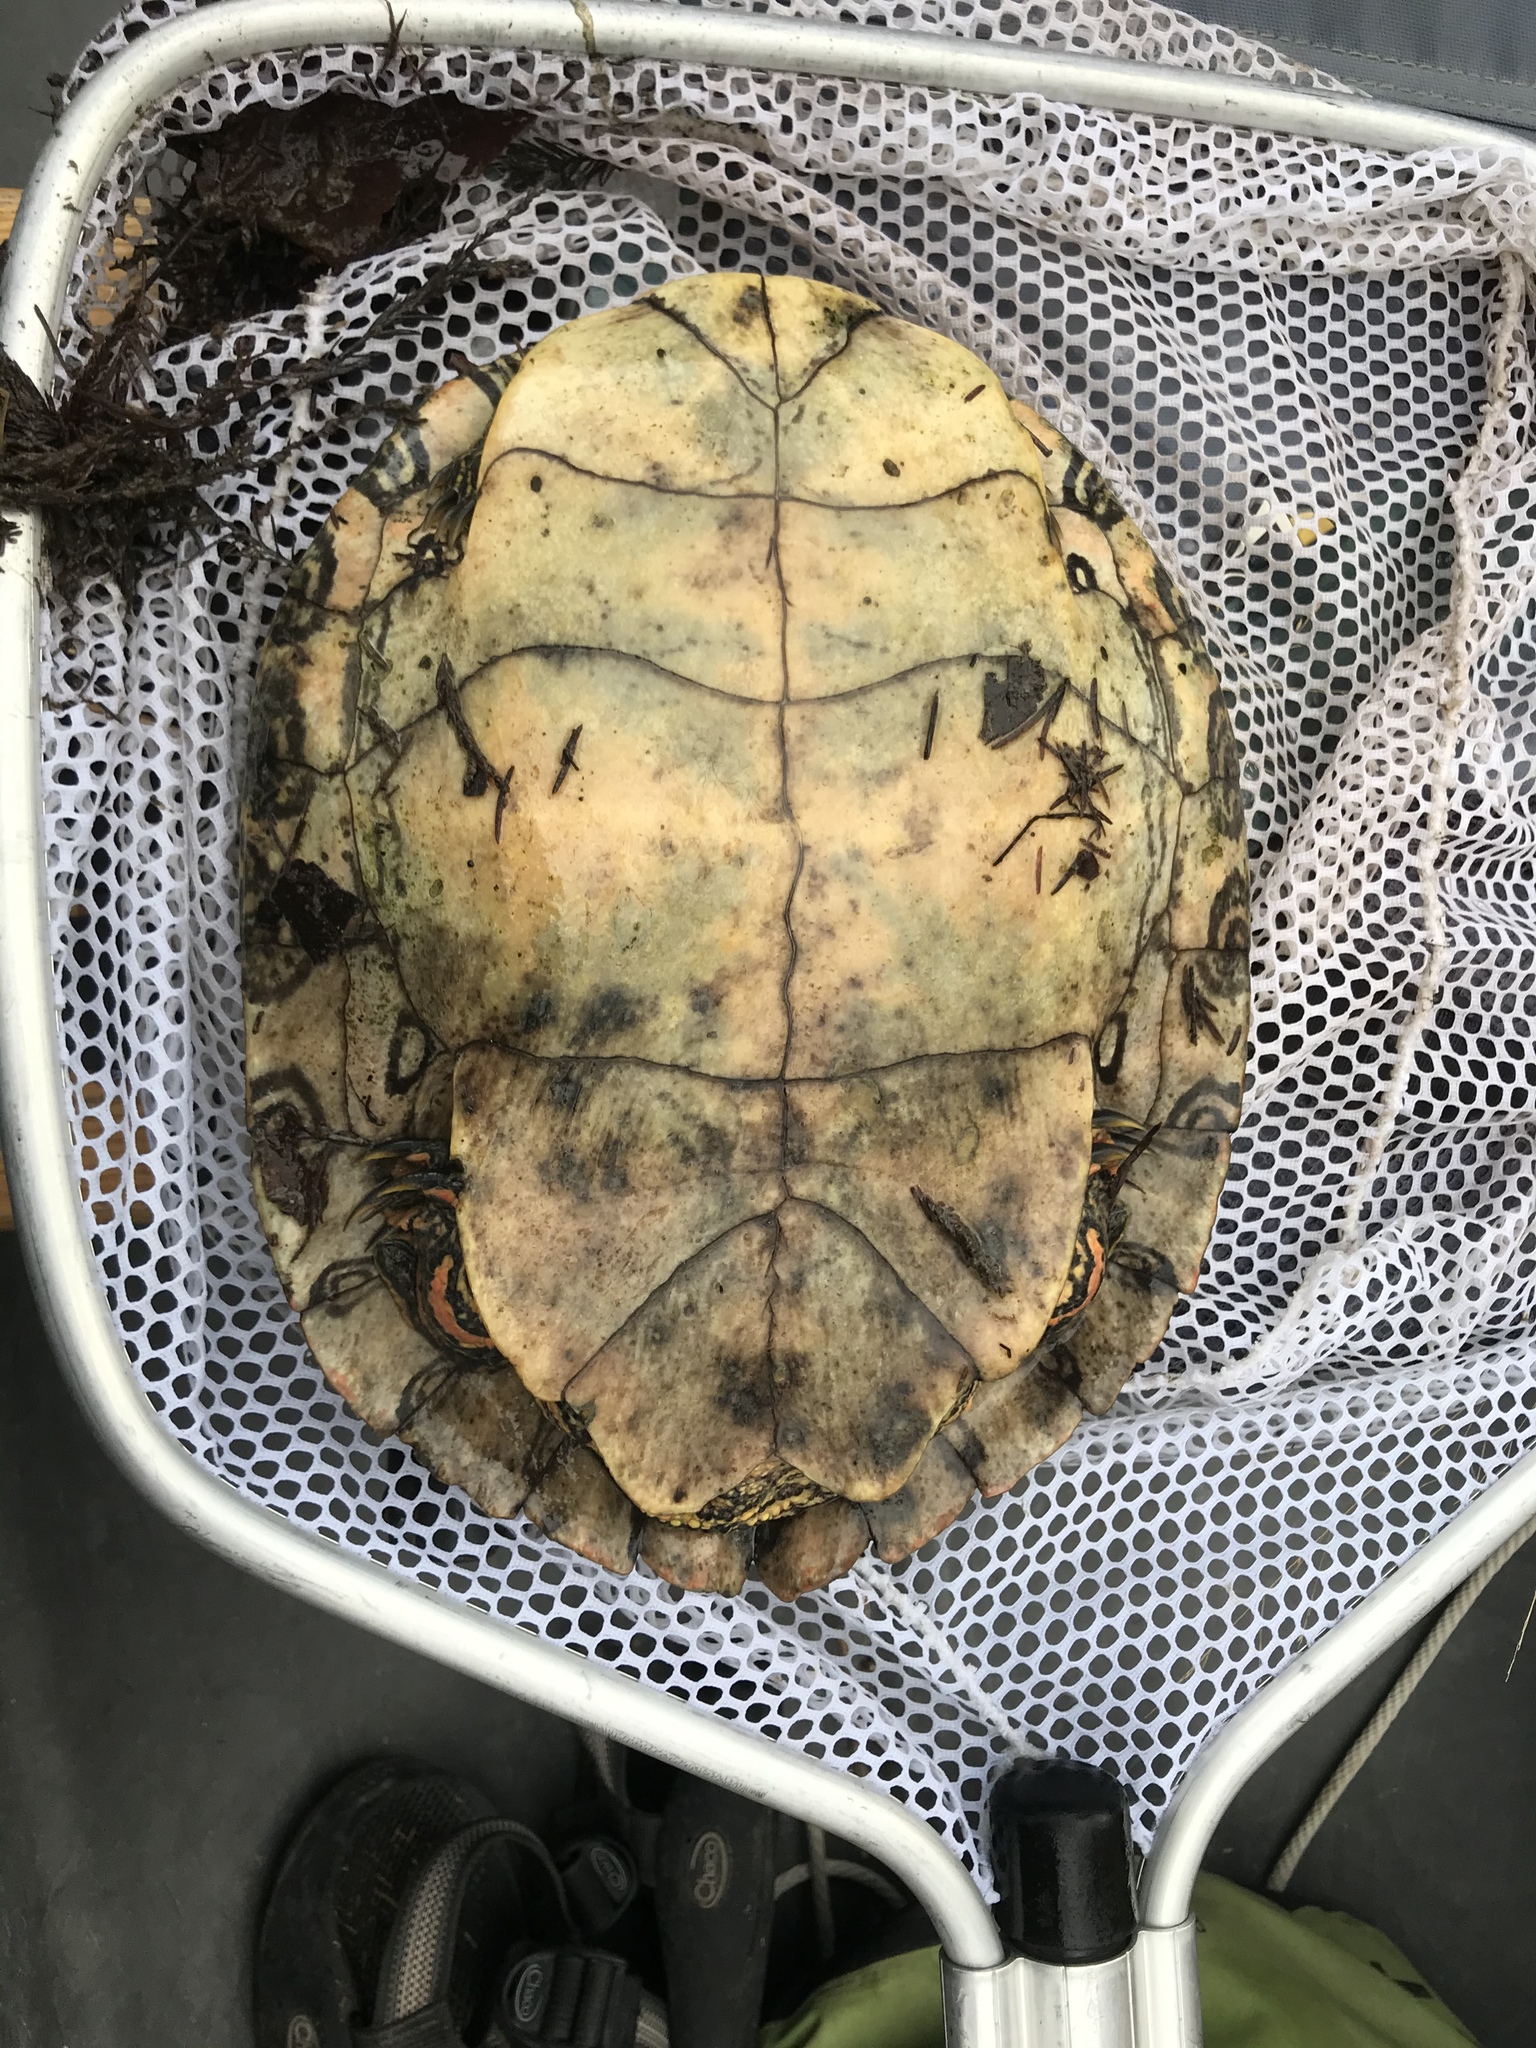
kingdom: Animalia
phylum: Chordata
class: Testudines
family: Emydidae
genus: Pseudemys
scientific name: Pseudemys texana
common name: Texas river cooter
